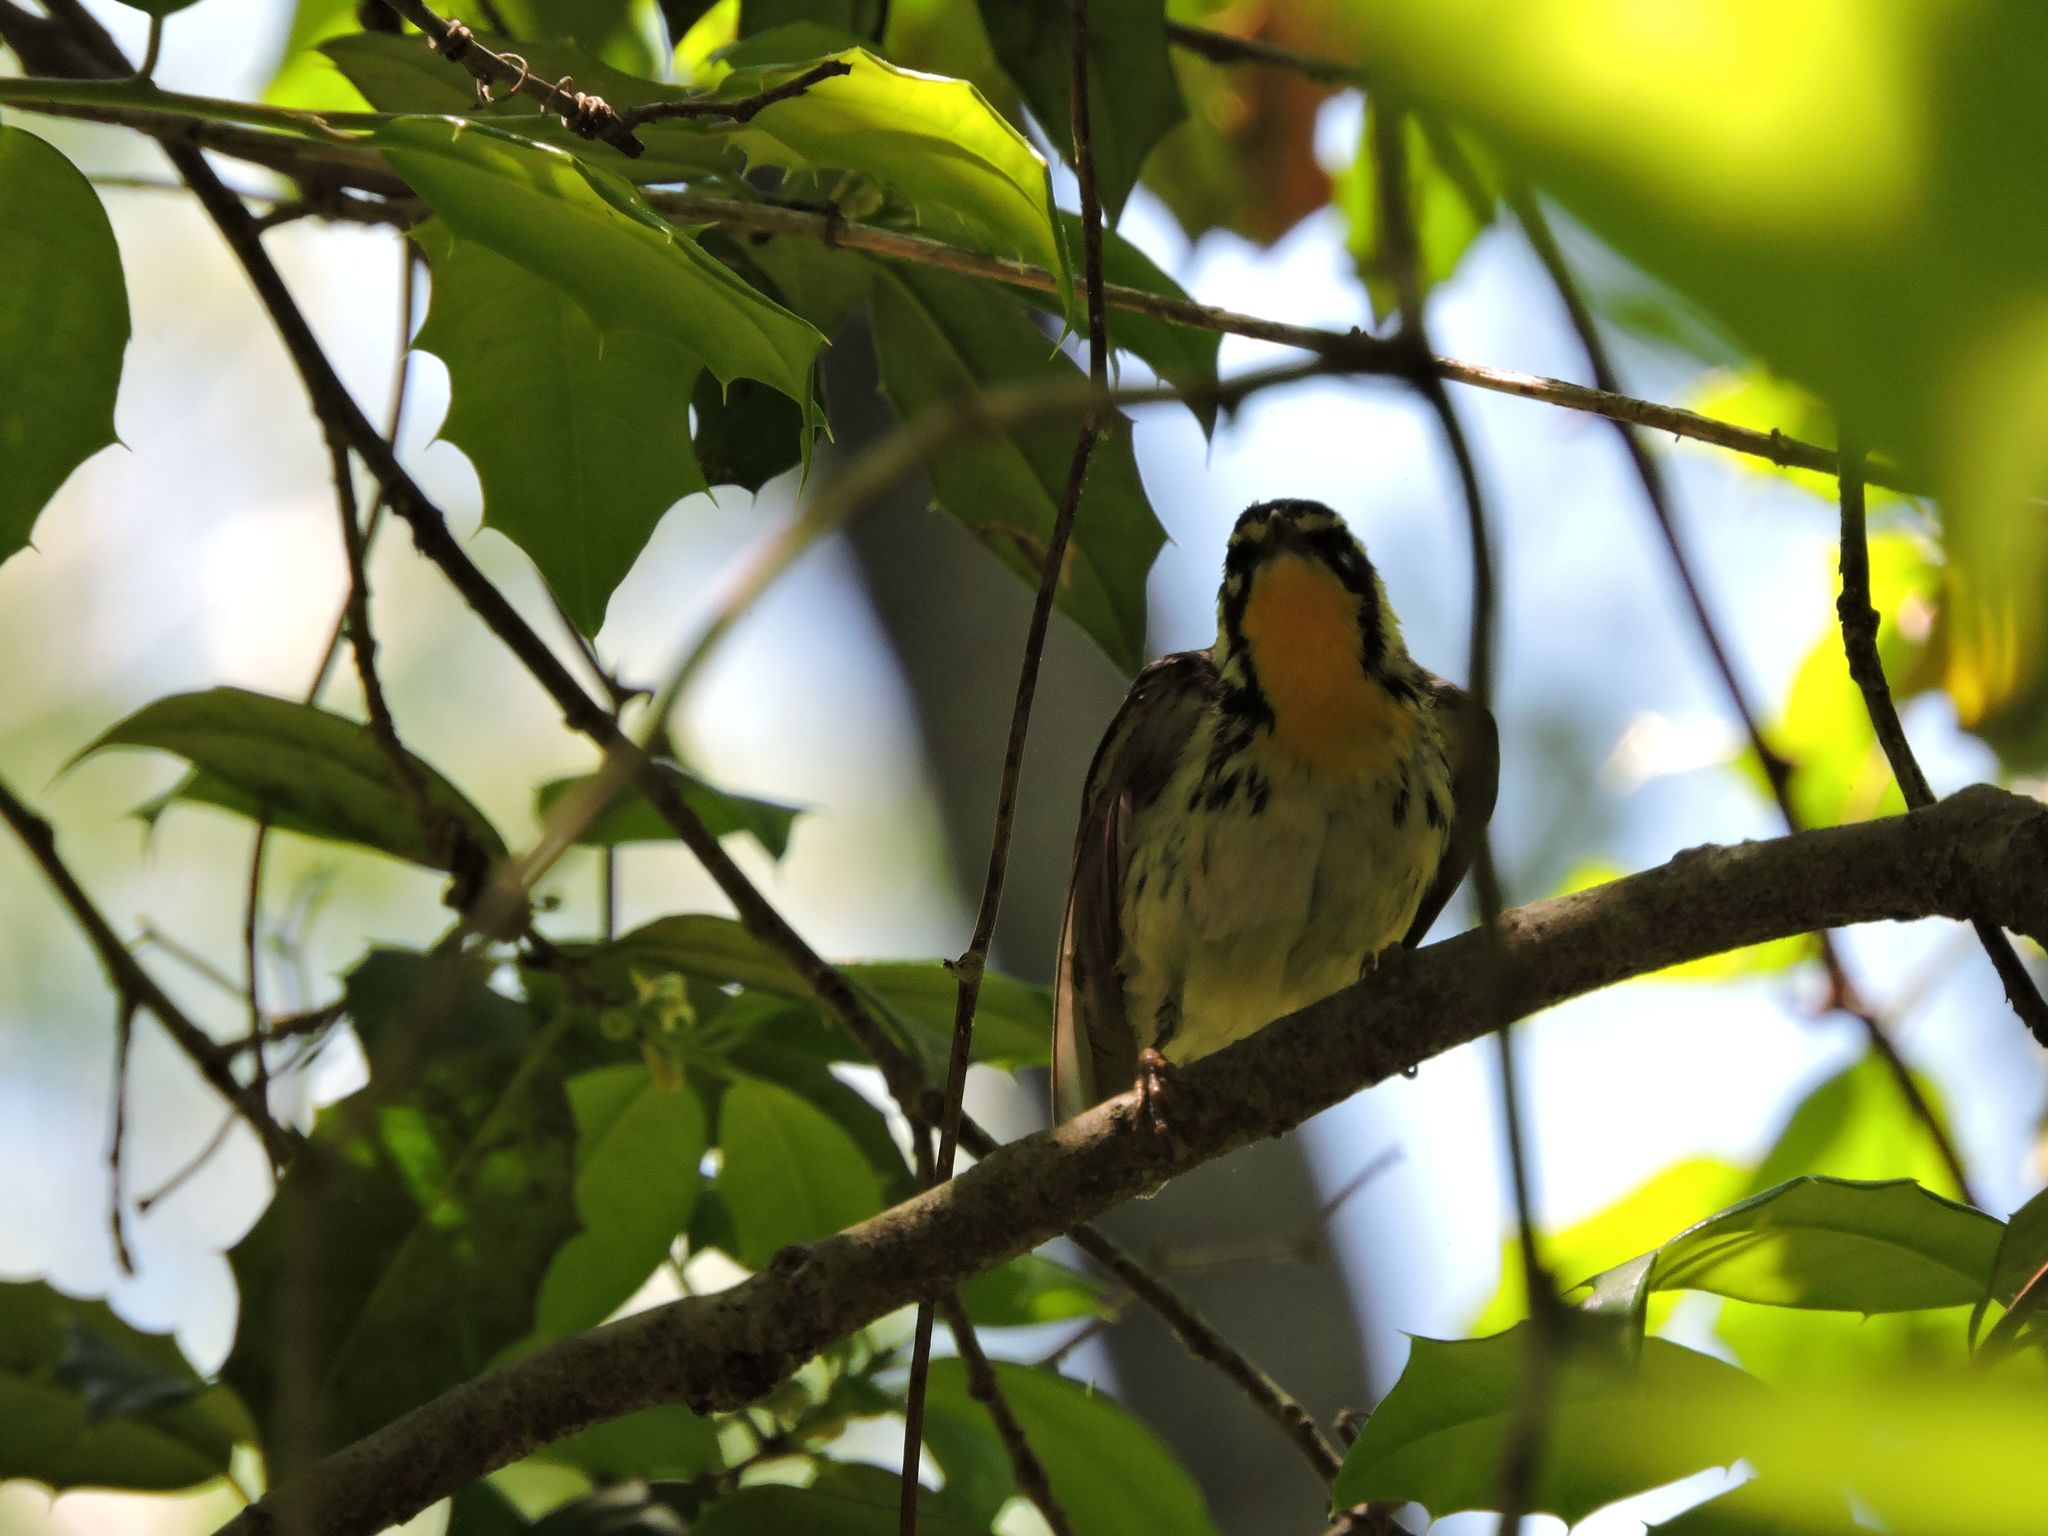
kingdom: Animalia
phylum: Chordata
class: Aves
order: Passeriformes
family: Parulidae
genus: Setophaga
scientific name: Setophaga dominica
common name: Yellow-throated warbler
